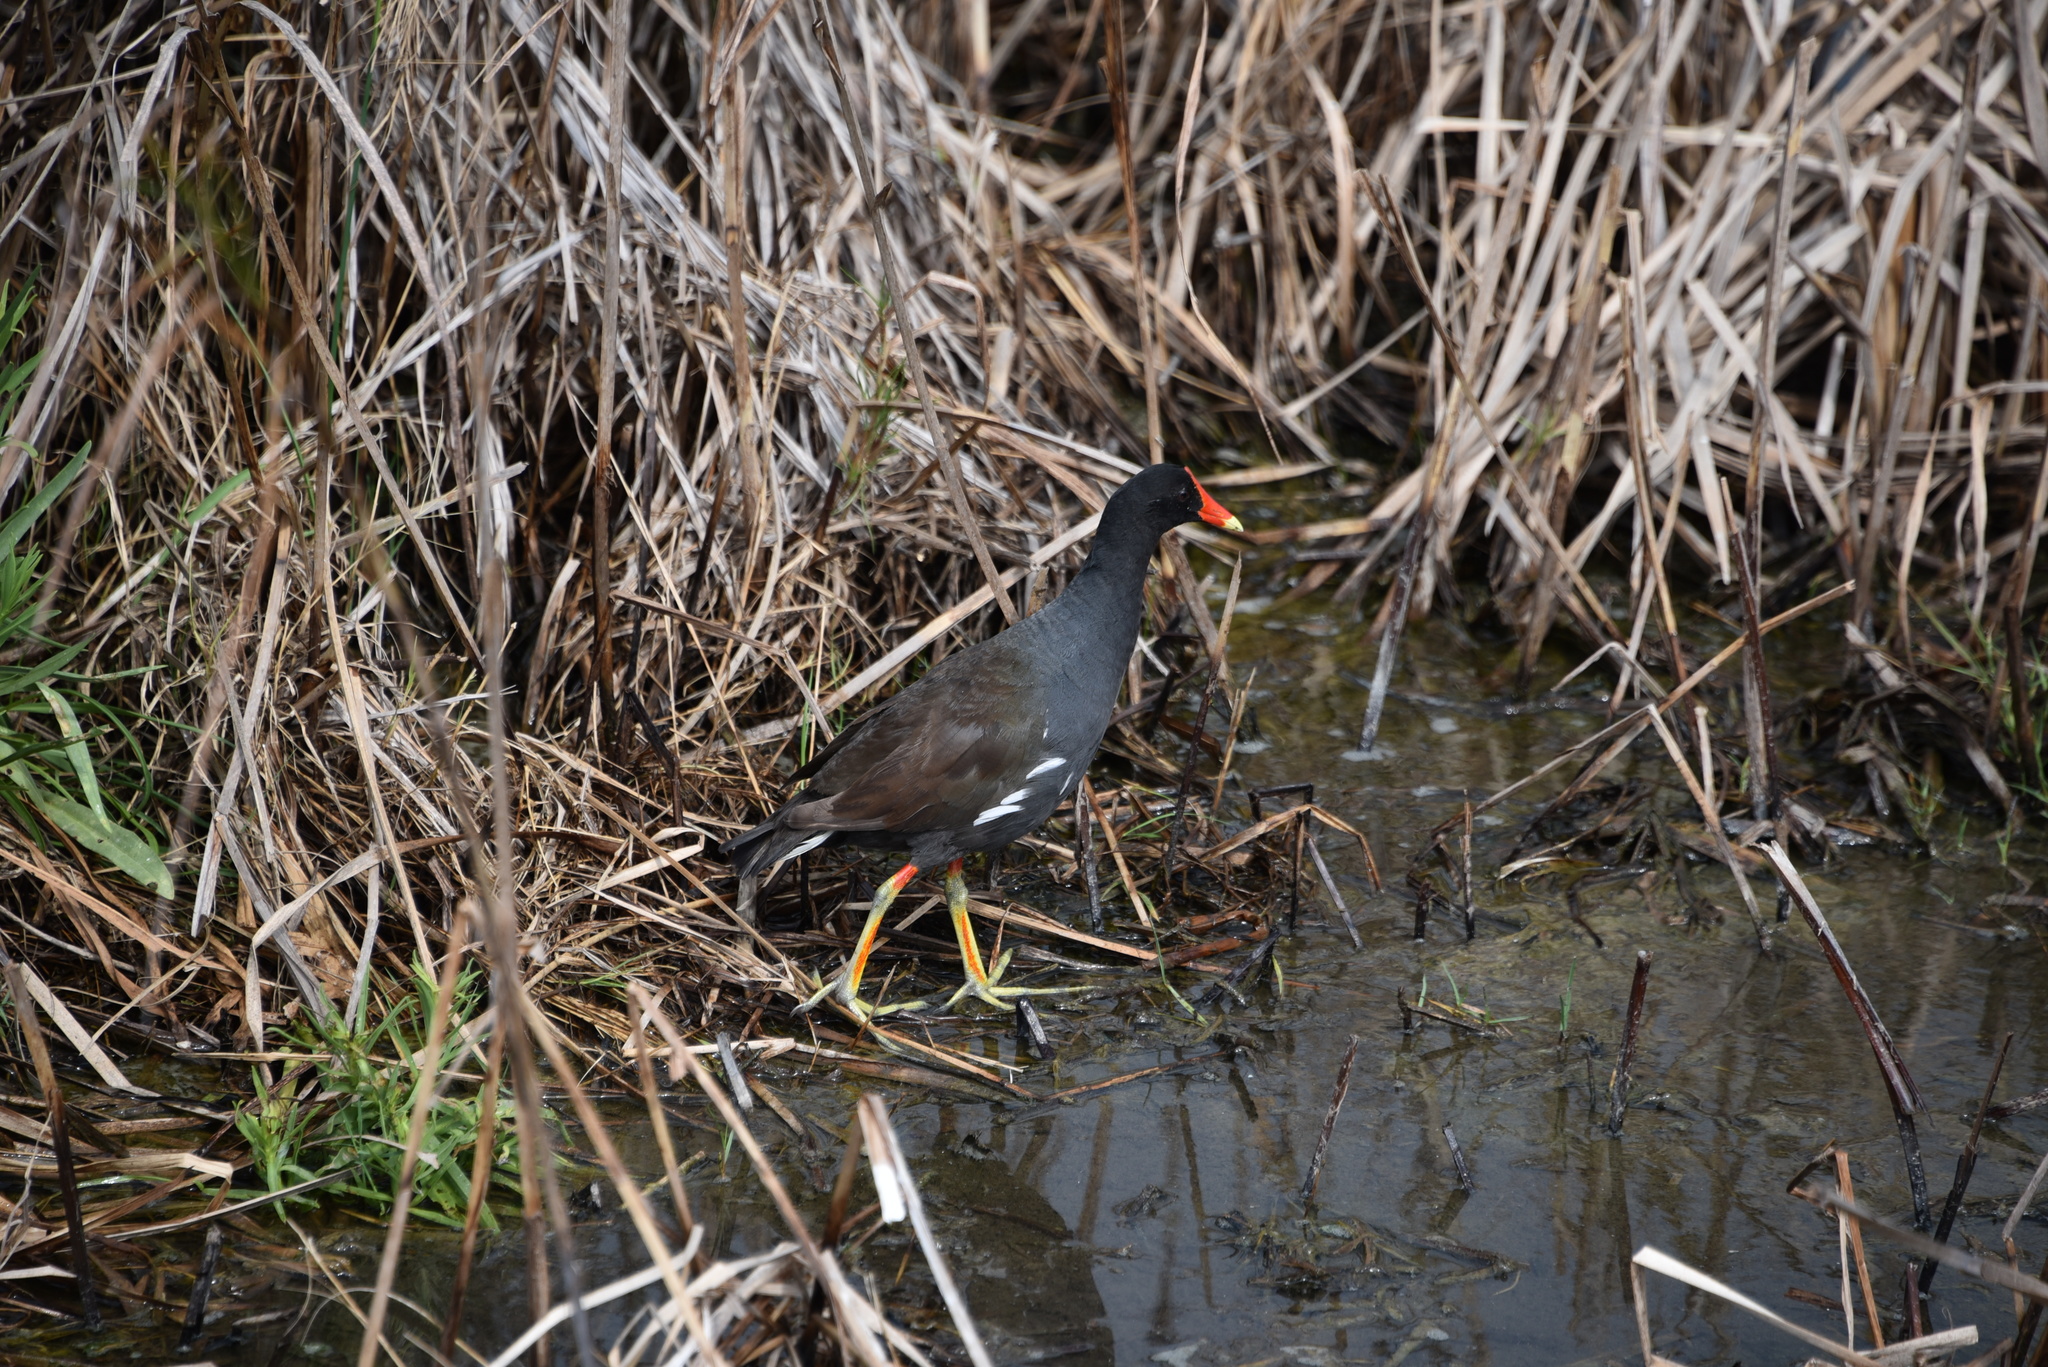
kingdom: Animalia
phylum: Chordata
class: Aves
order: Gruiformes
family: Rallidae
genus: Gallinula
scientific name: Gallinula chloropus
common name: Common moorhen
